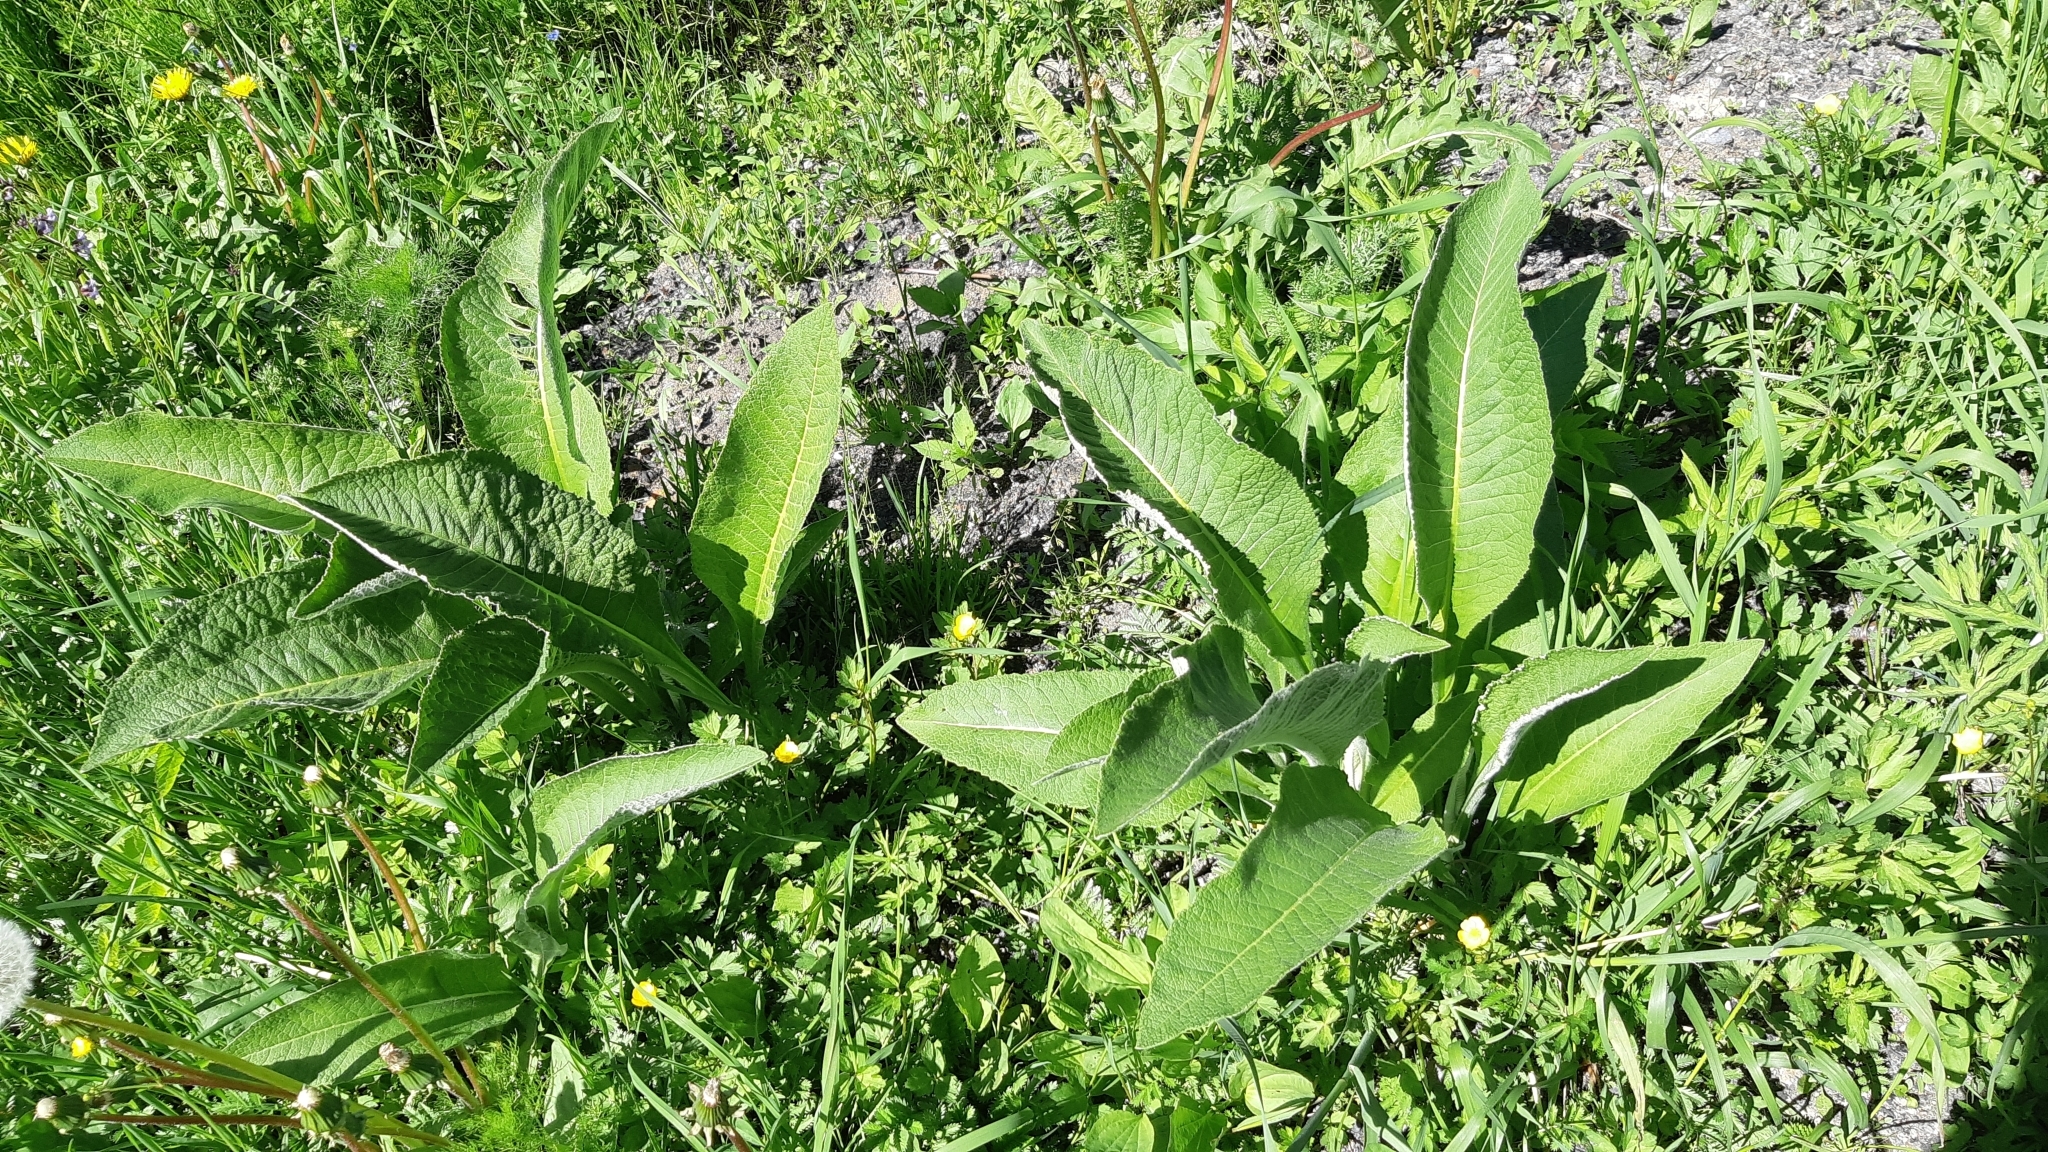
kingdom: Plantae
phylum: Tracheophyta
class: Magnoliopsida
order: Asterales
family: Asteraceae
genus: Inula
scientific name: Inula helenium
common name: Elecampane
